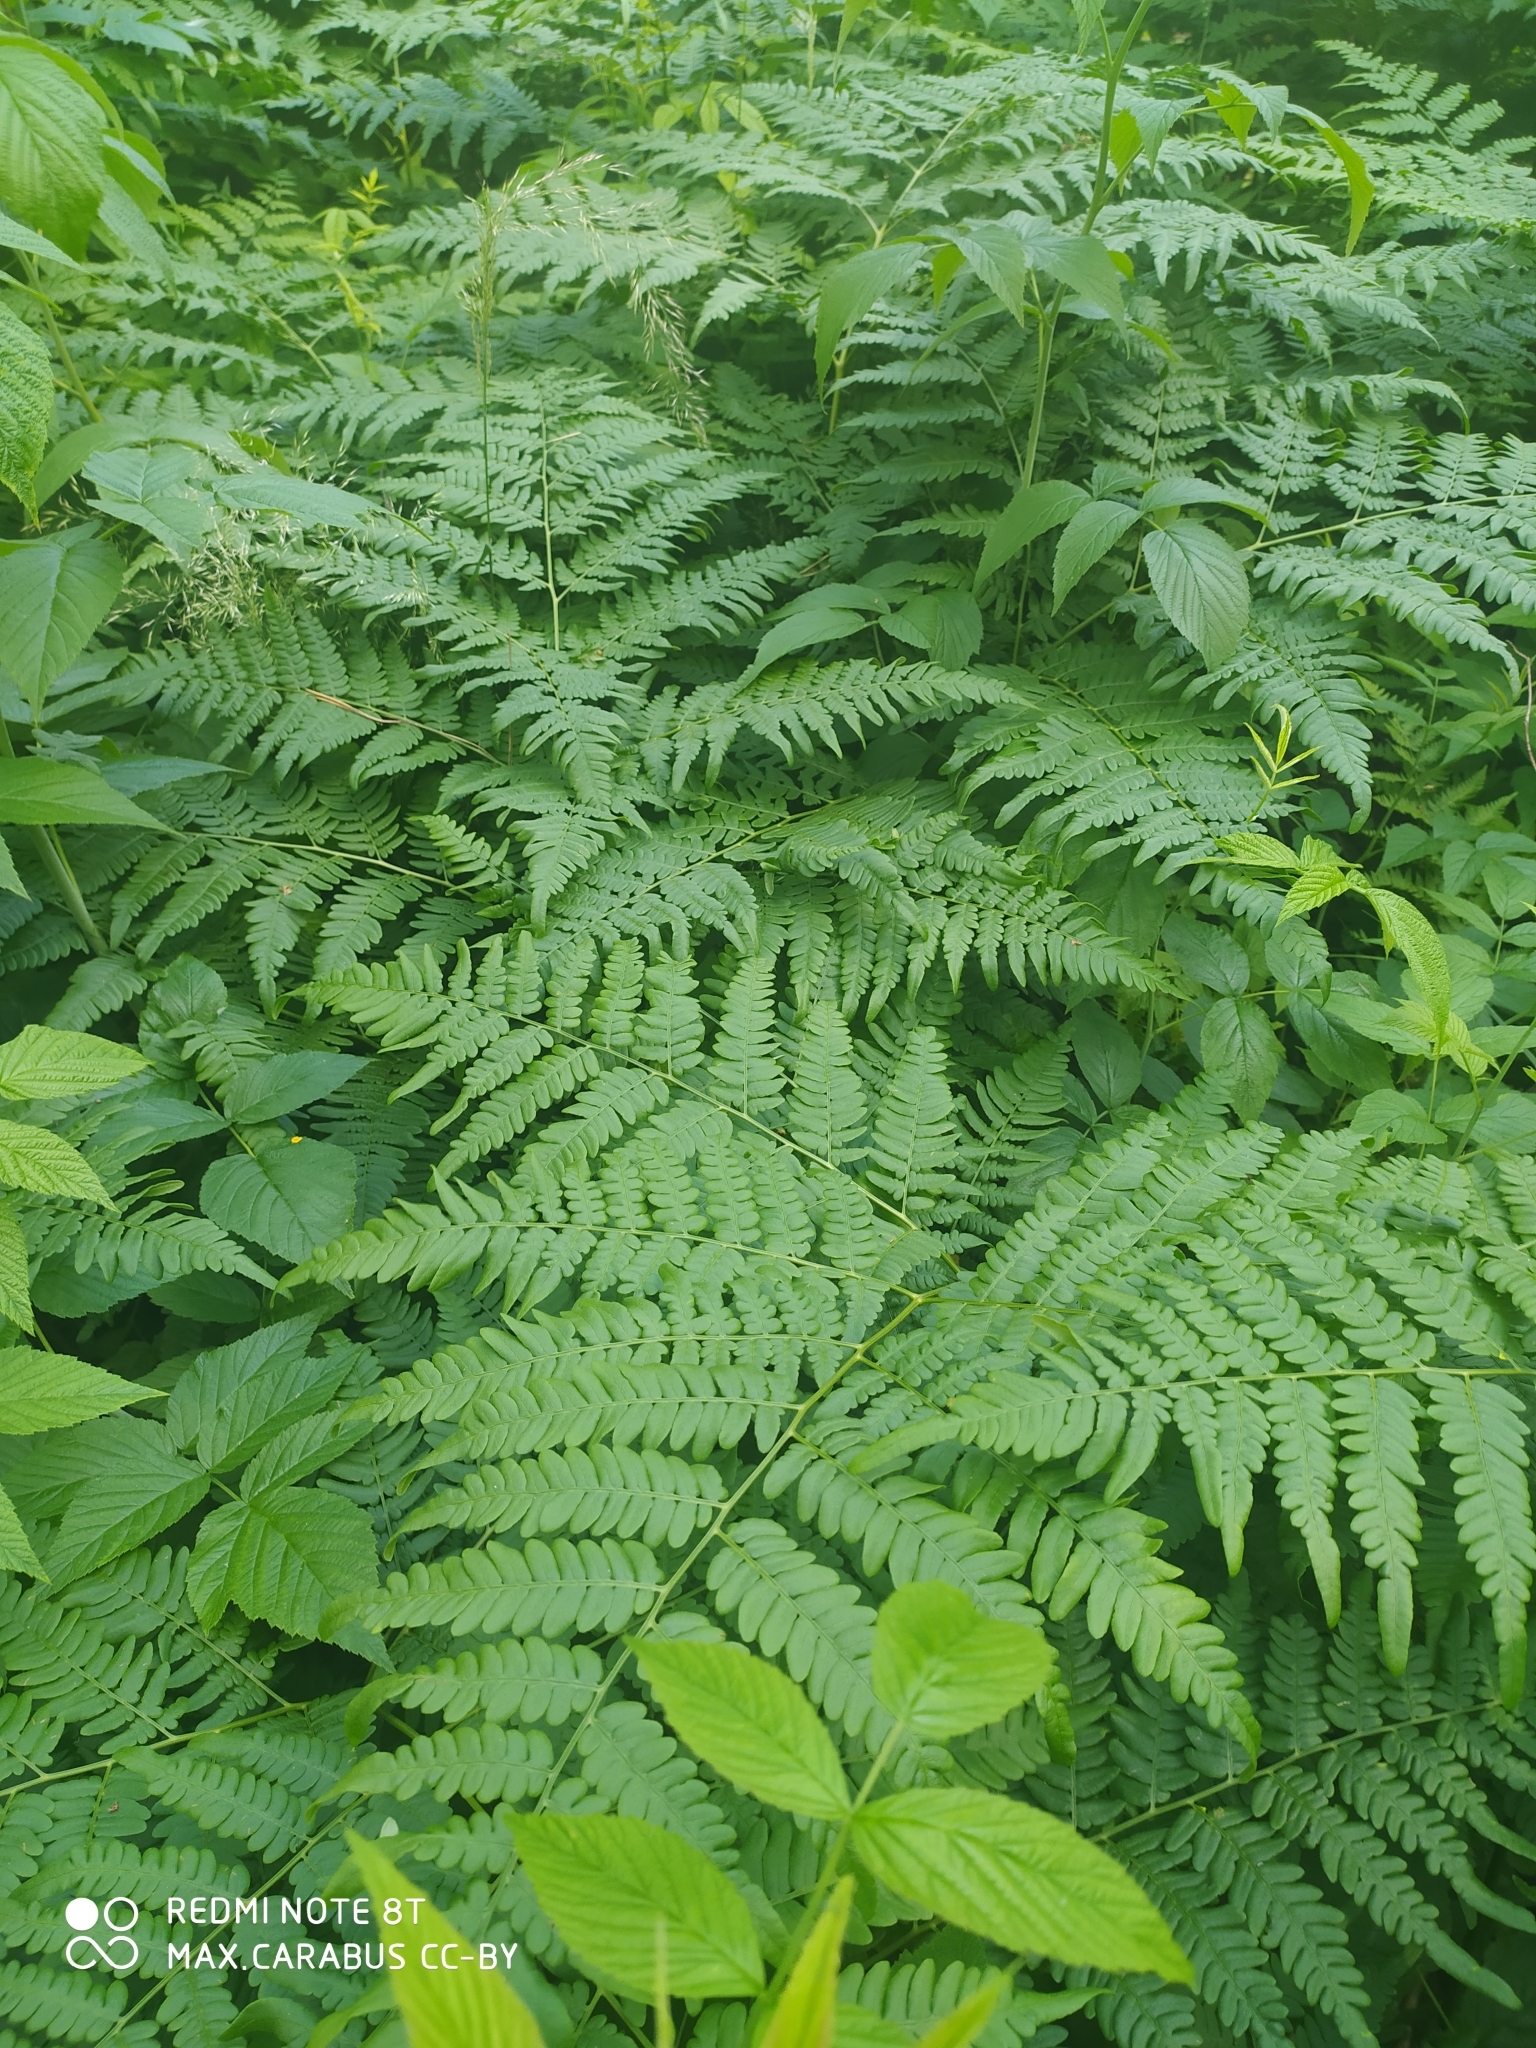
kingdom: Plantae
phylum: Tracheophyta
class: Polypodiopsida
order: Polypodiales
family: Dennstaedtiaceae
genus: Pteridium
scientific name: Pteridium aquilinum
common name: Bracken
